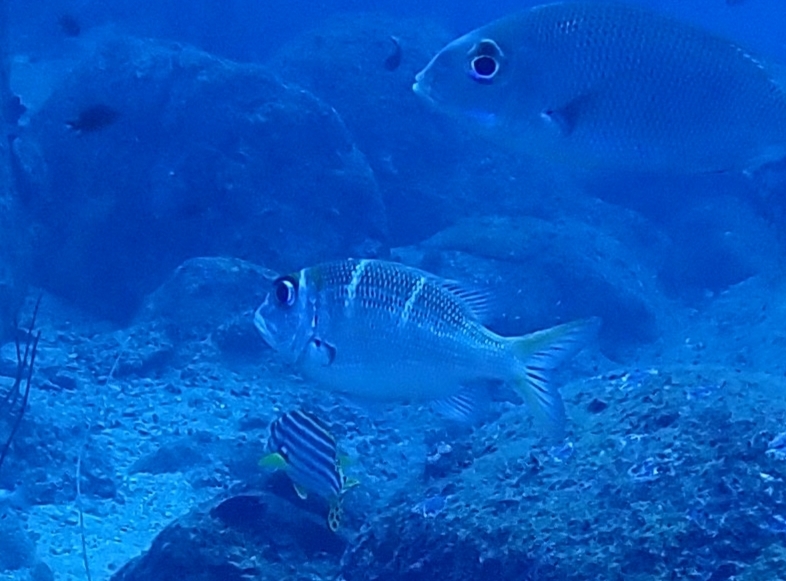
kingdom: Animalia
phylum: Chordata
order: Perciformes
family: Lethrinidae
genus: Monotaxis
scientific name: Monotaxis heterodon
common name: Redfin emperor
